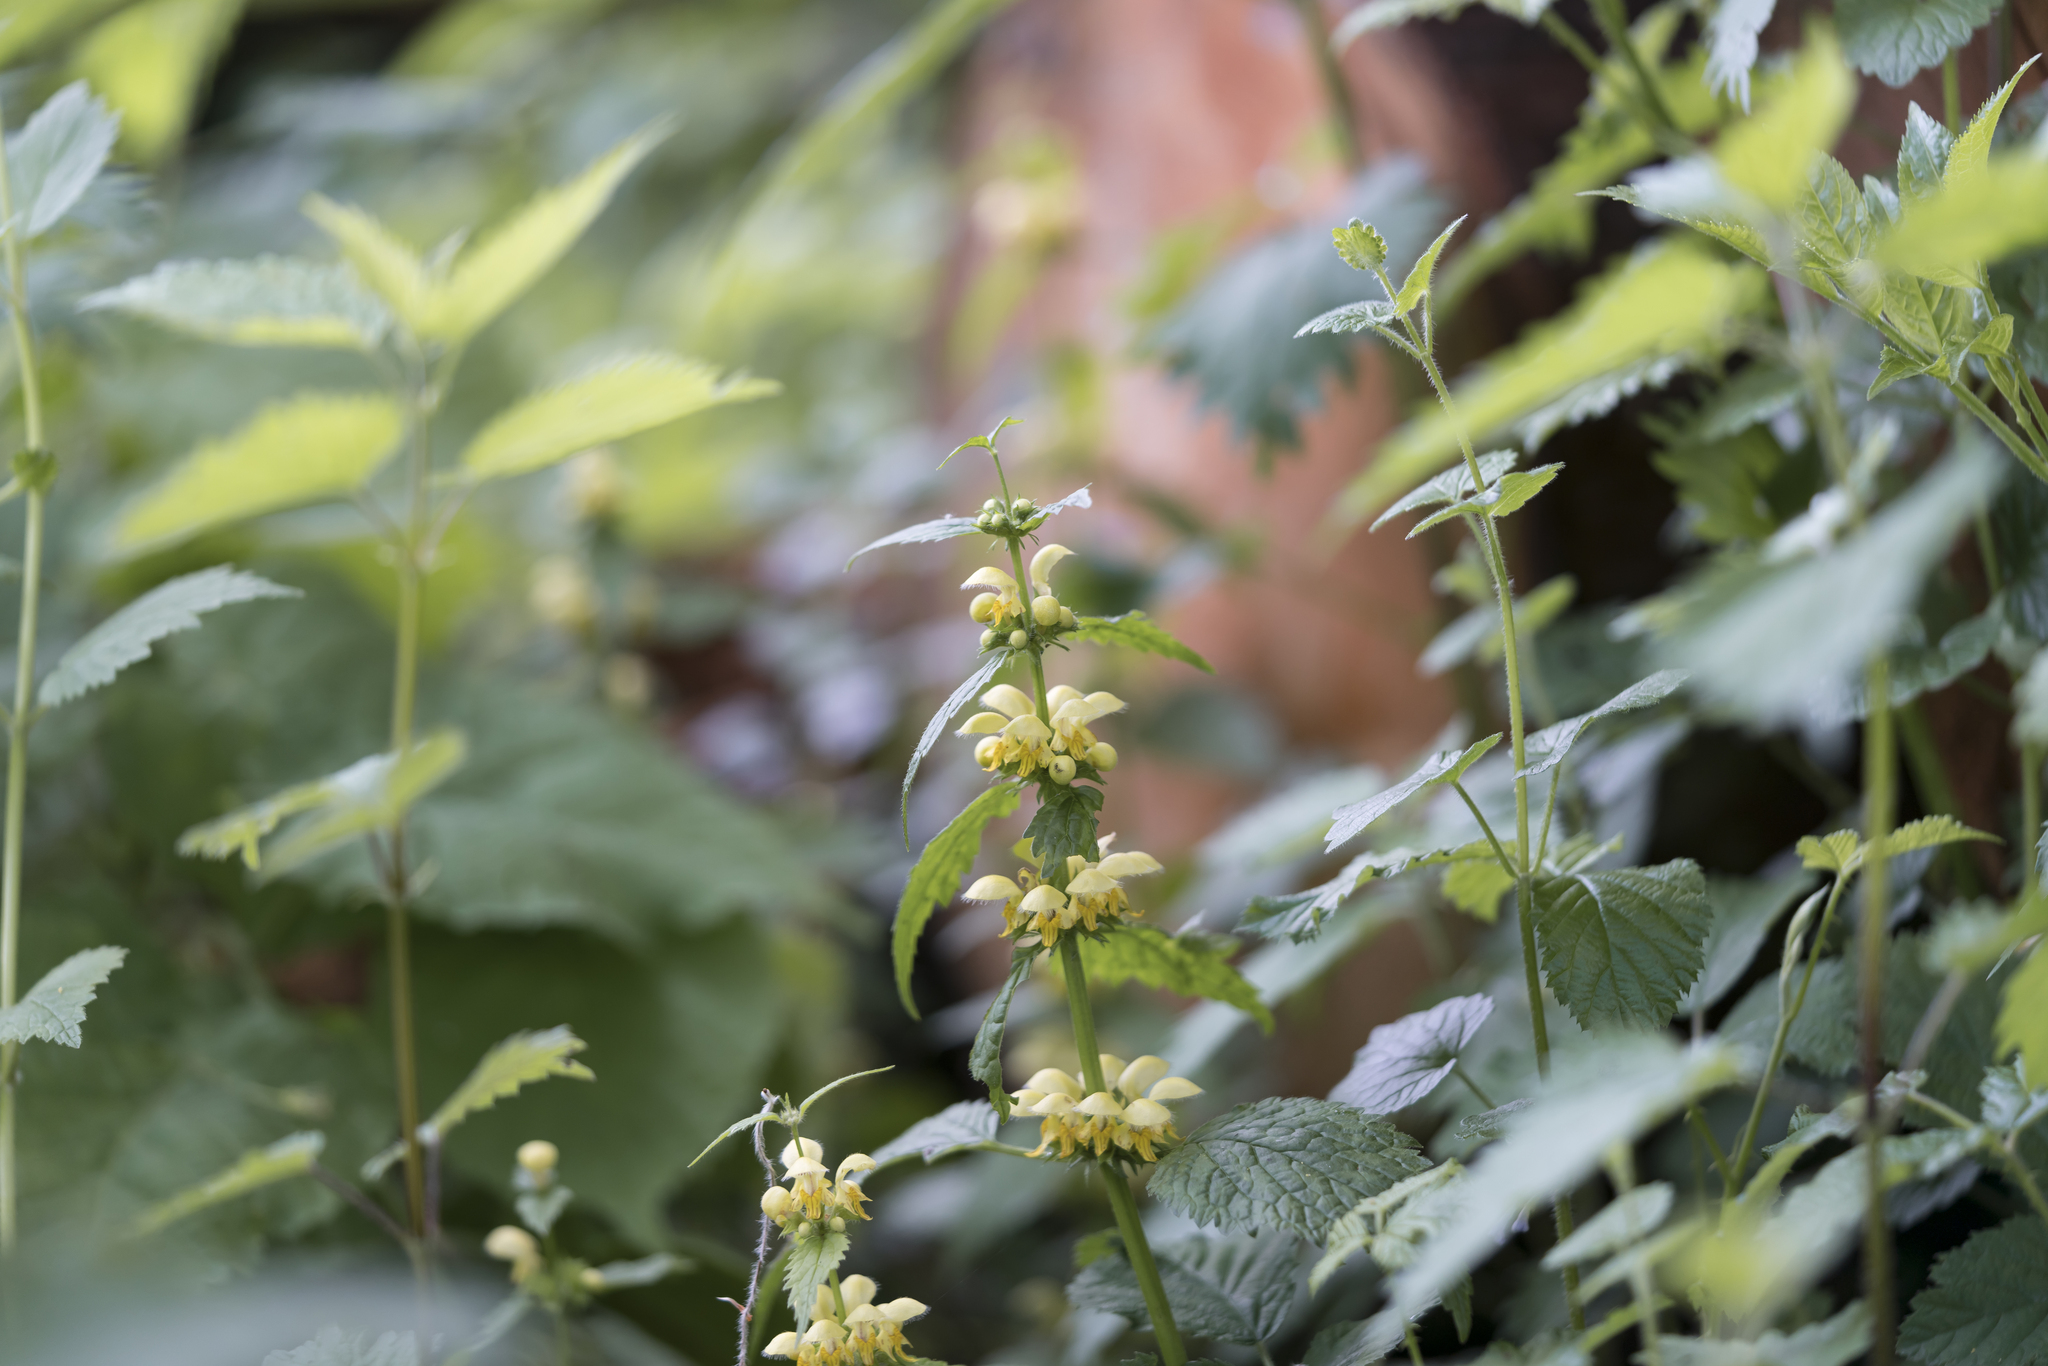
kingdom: Plantae
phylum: Tracheophyta
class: Magnoliopsida
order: Lamiales
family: Lamiaceae
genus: Lamium
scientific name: Lamium galeobdolon
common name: Yellow archangel
